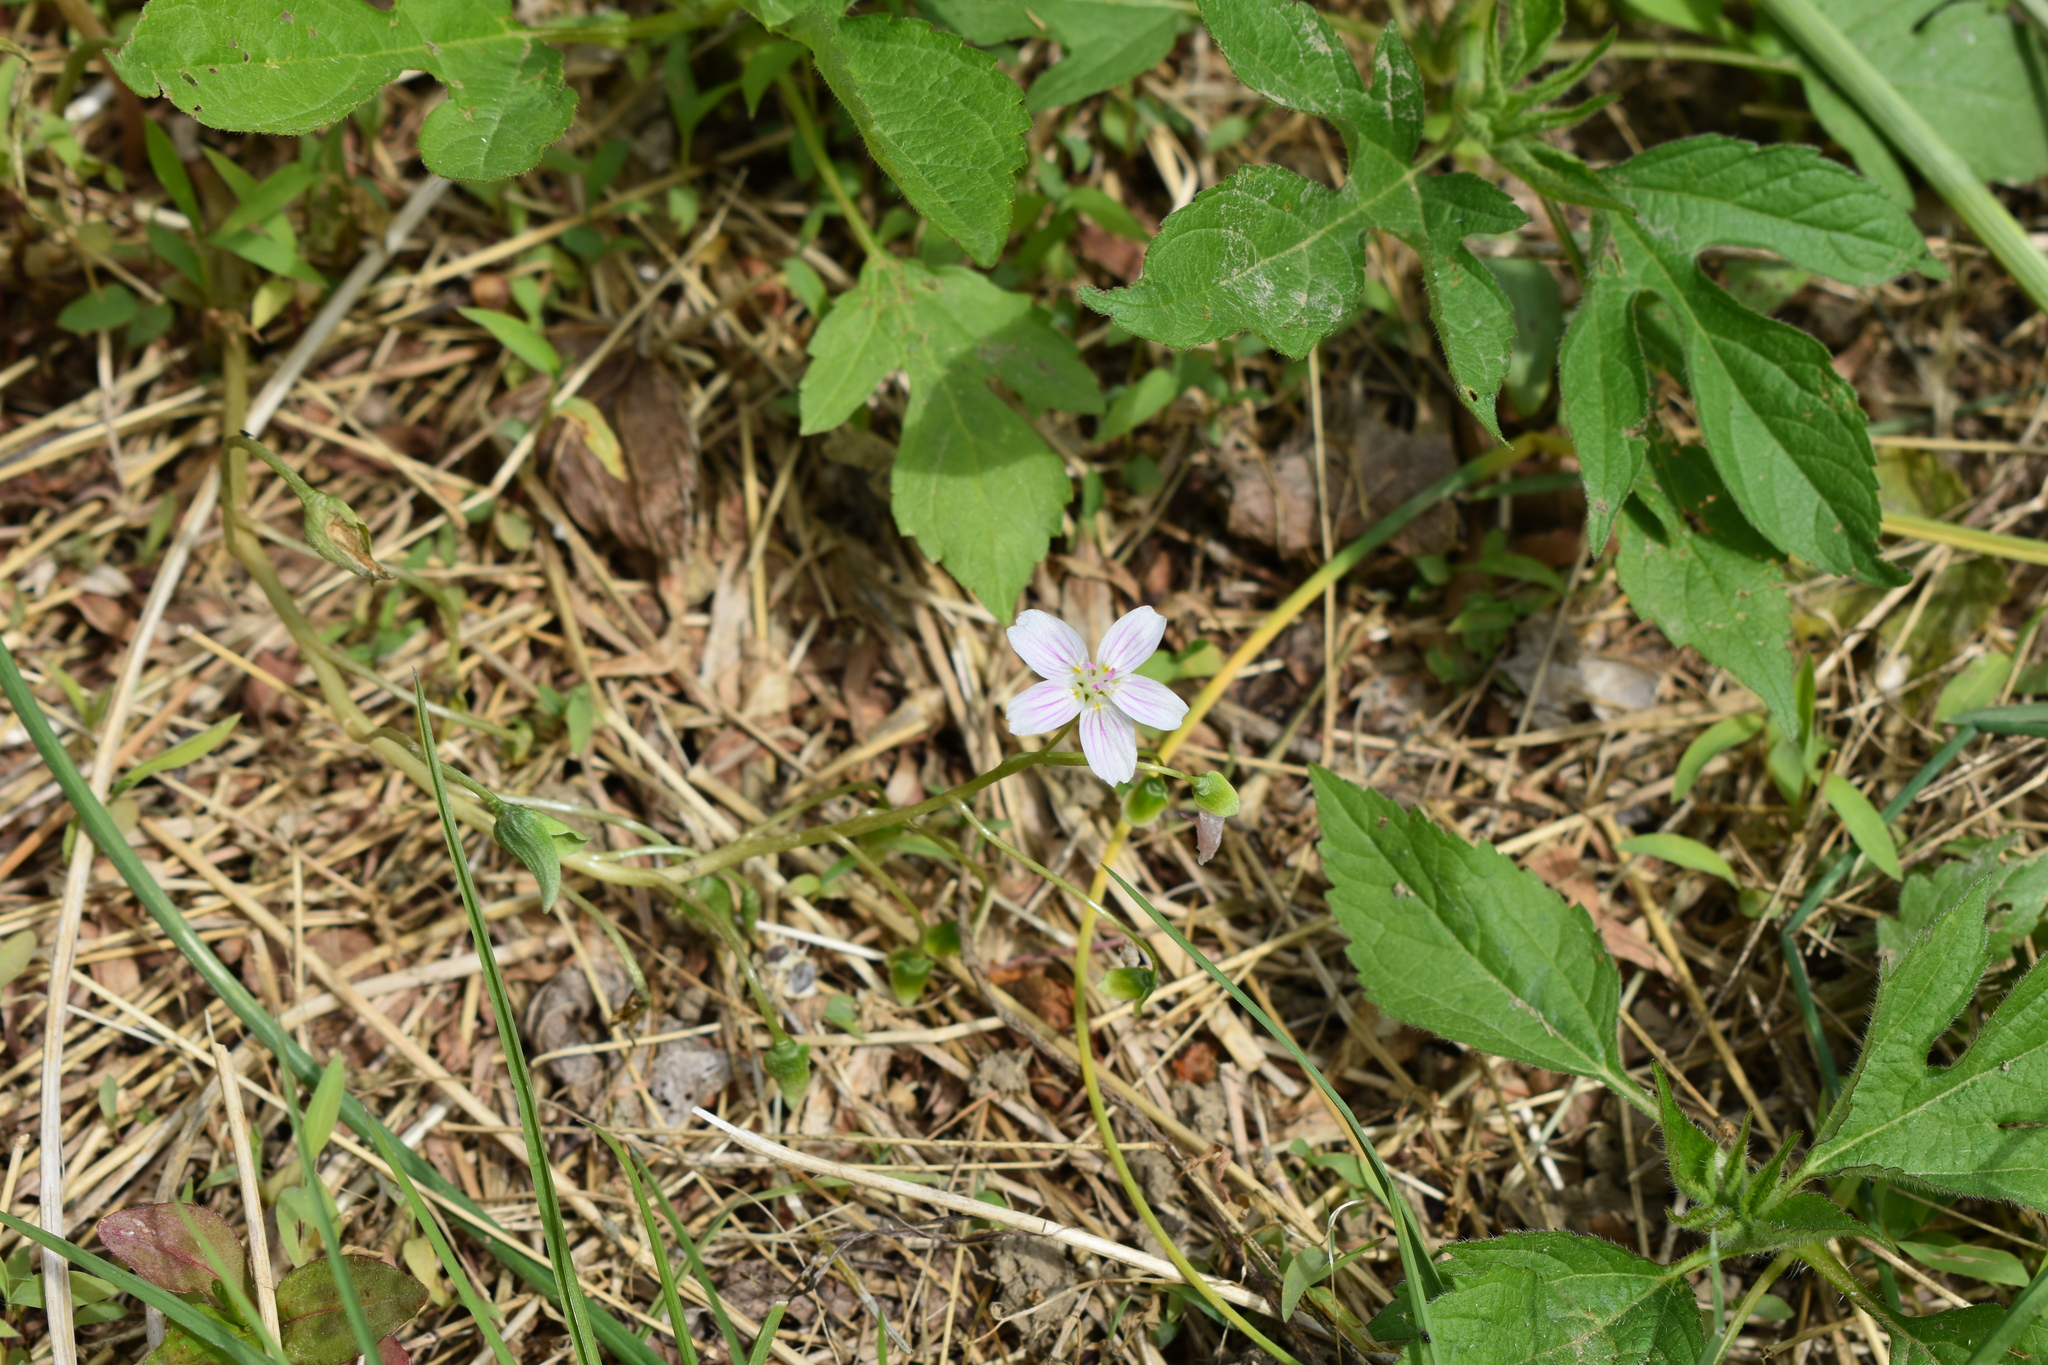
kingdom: Plantae
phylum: Tracheophyta
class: Magnoliopsida
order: Caryophyllales
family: Montiaceae
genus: Claytonia
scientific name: Claytonia virginica
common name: Virginia springbeauty
